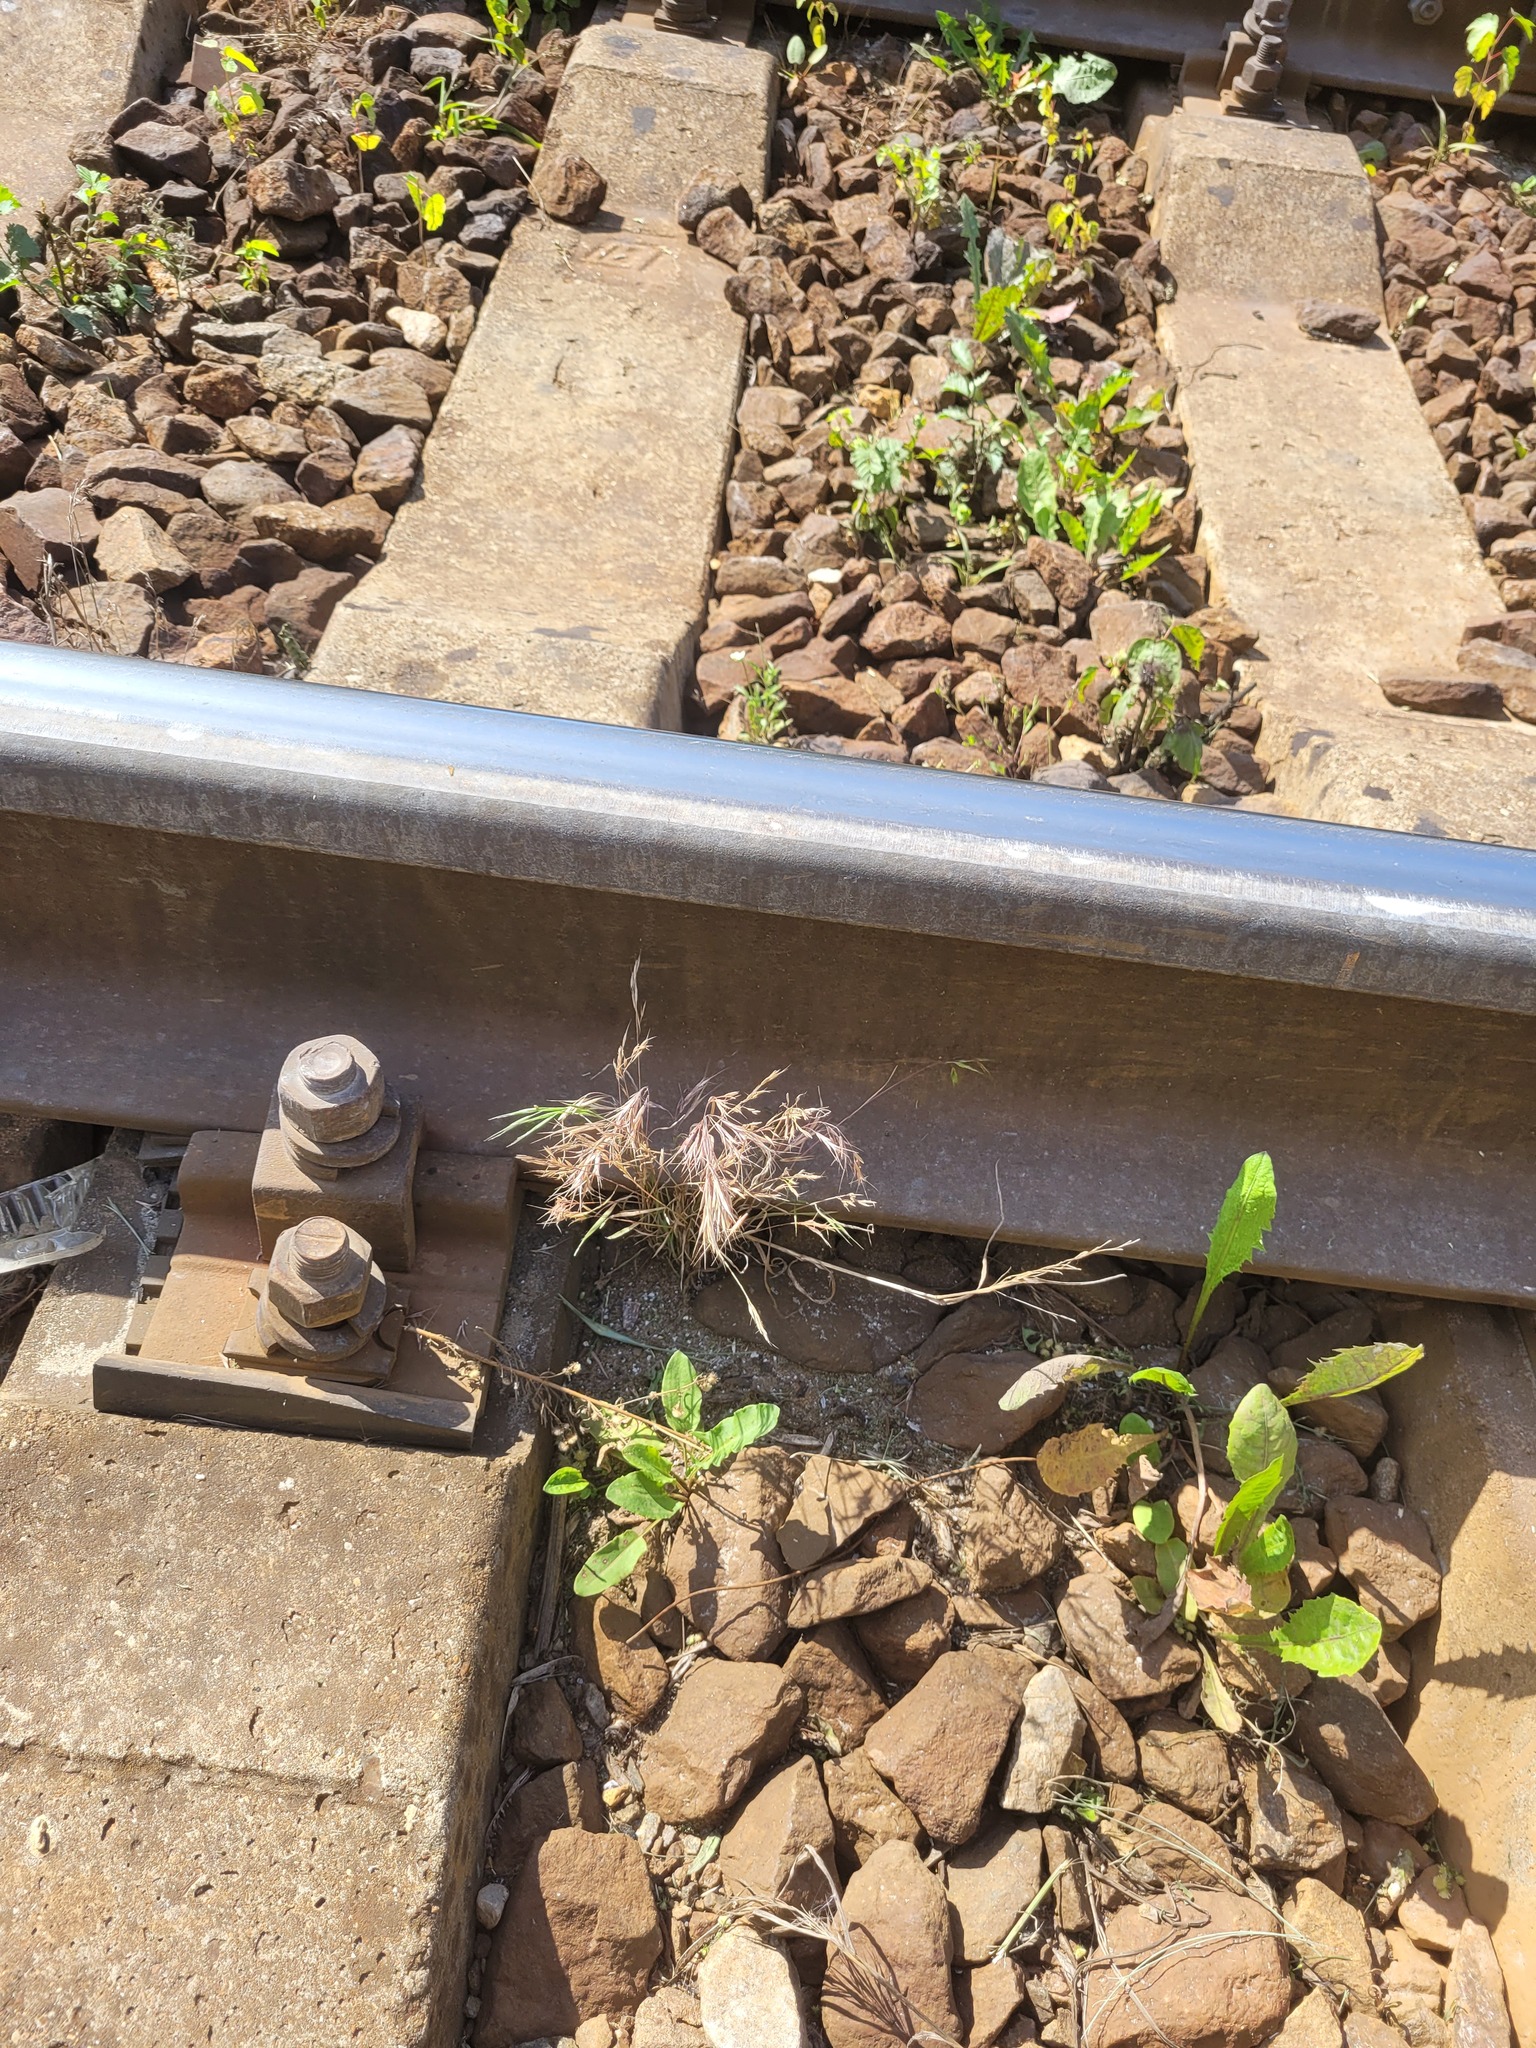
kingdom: Plantae
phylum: Tracheophyta
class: Liliopsida
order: Poales
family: Poaceae
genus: Bromus
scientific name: Bromus tectorum
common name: Cheatgrass
